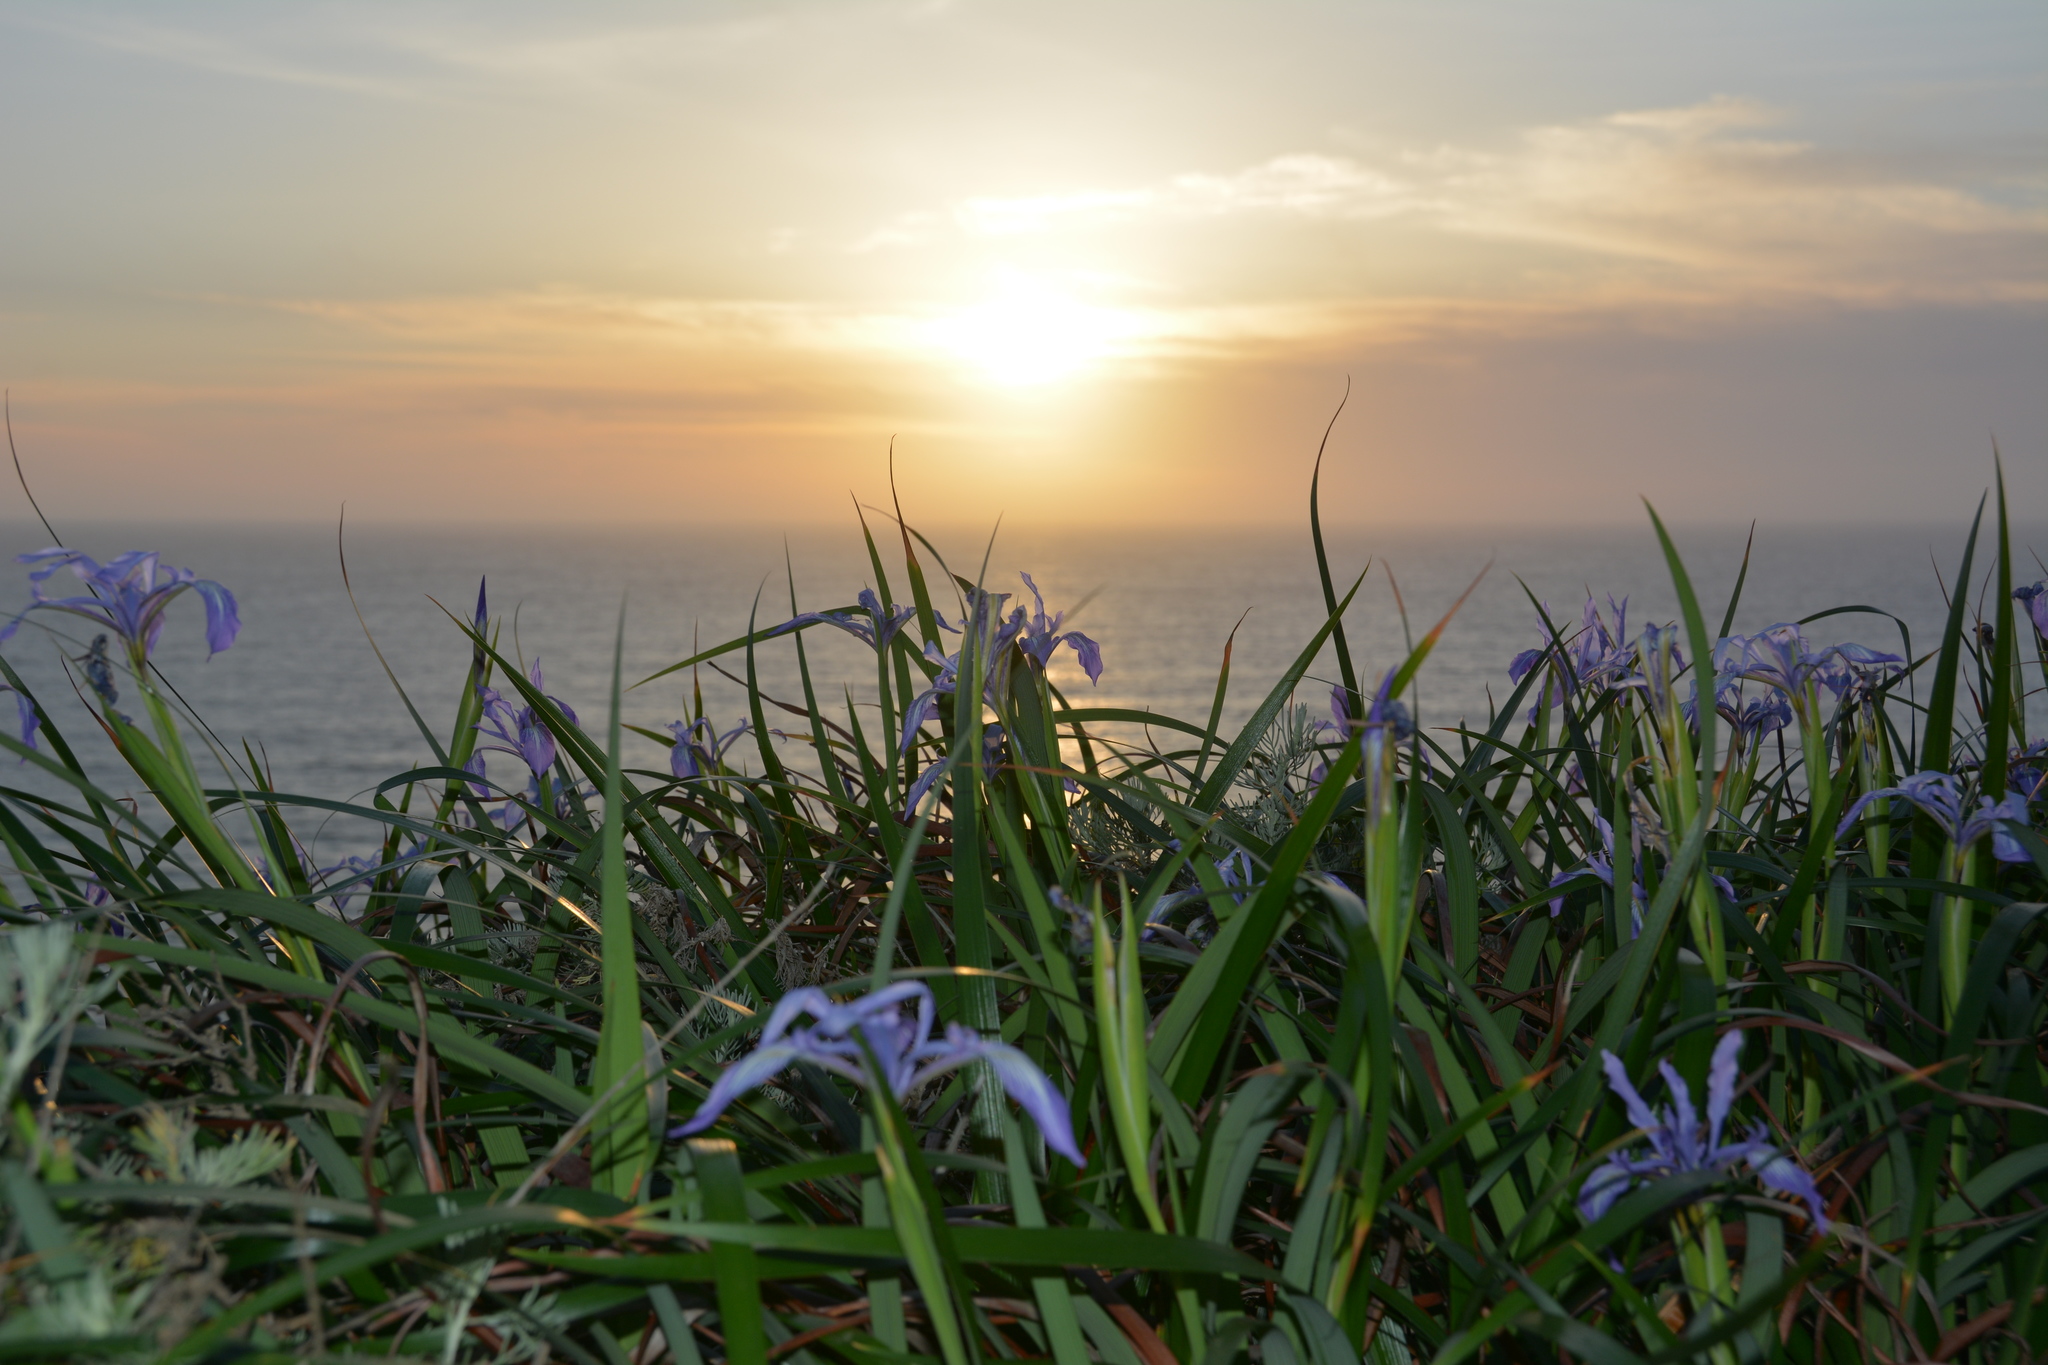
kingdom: Plantae
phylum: Tracheophyta
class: Liliopsida
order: Asparagales
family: Iridaceae
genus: Iris
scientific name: Iris douglasiana
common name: Marin iris
